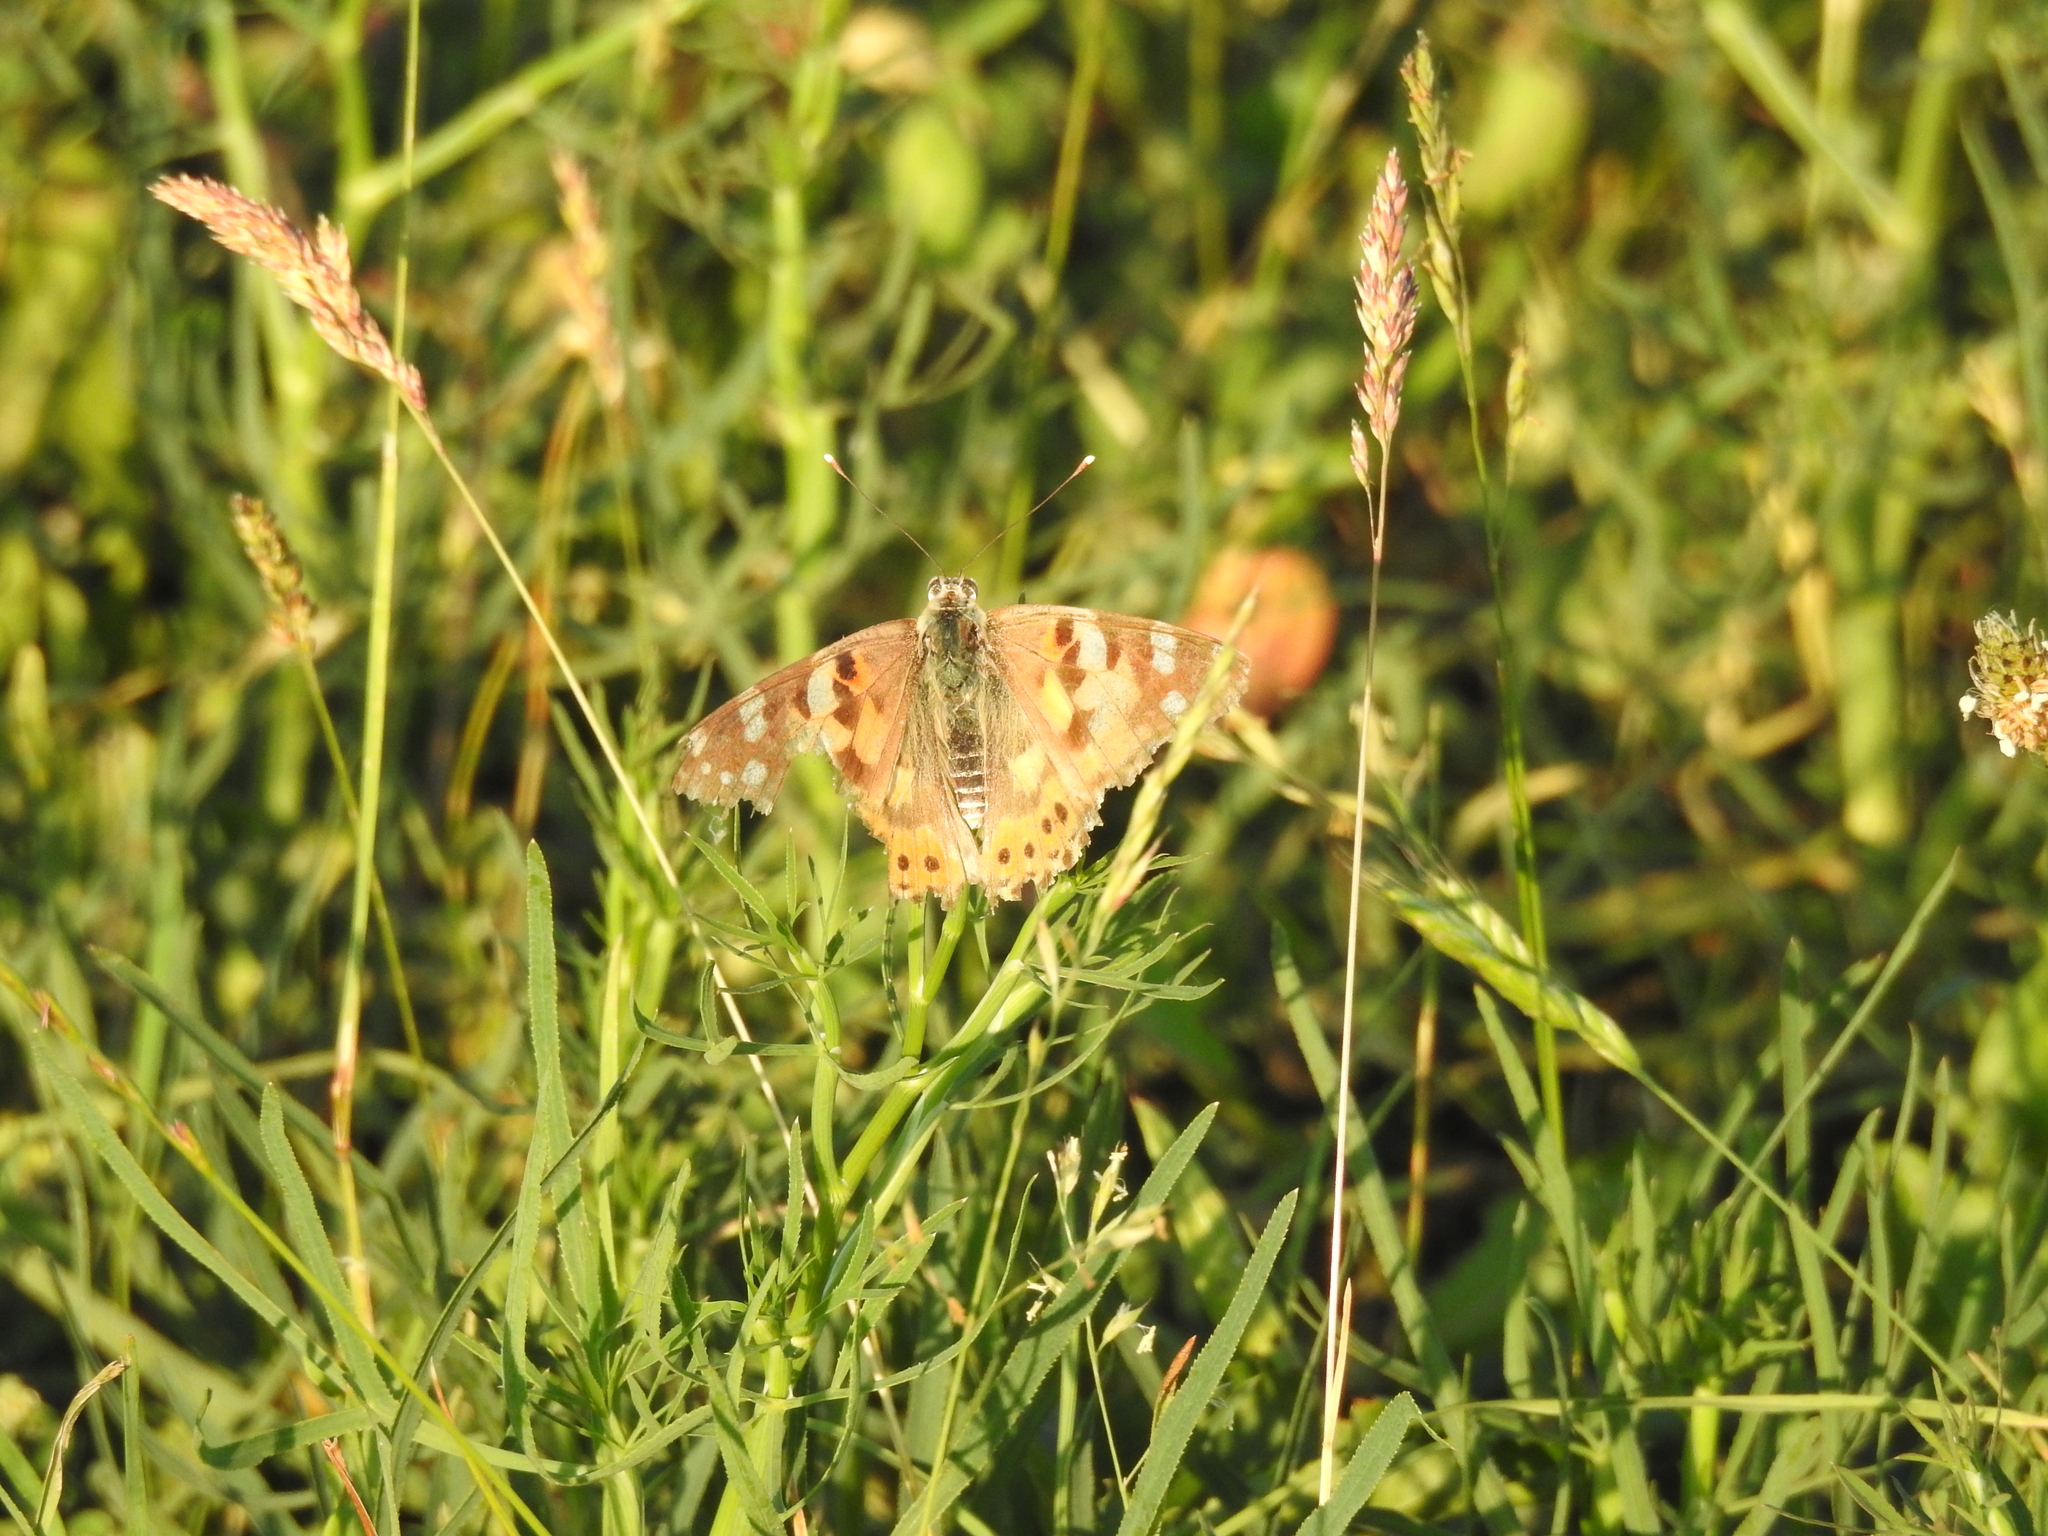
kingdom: Animalia
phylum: Arthropoda
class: Insecta
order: Lepidoptera
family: Nymphalidae
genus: Vanessa
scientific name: Vanessa cardui
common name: Painted lady
